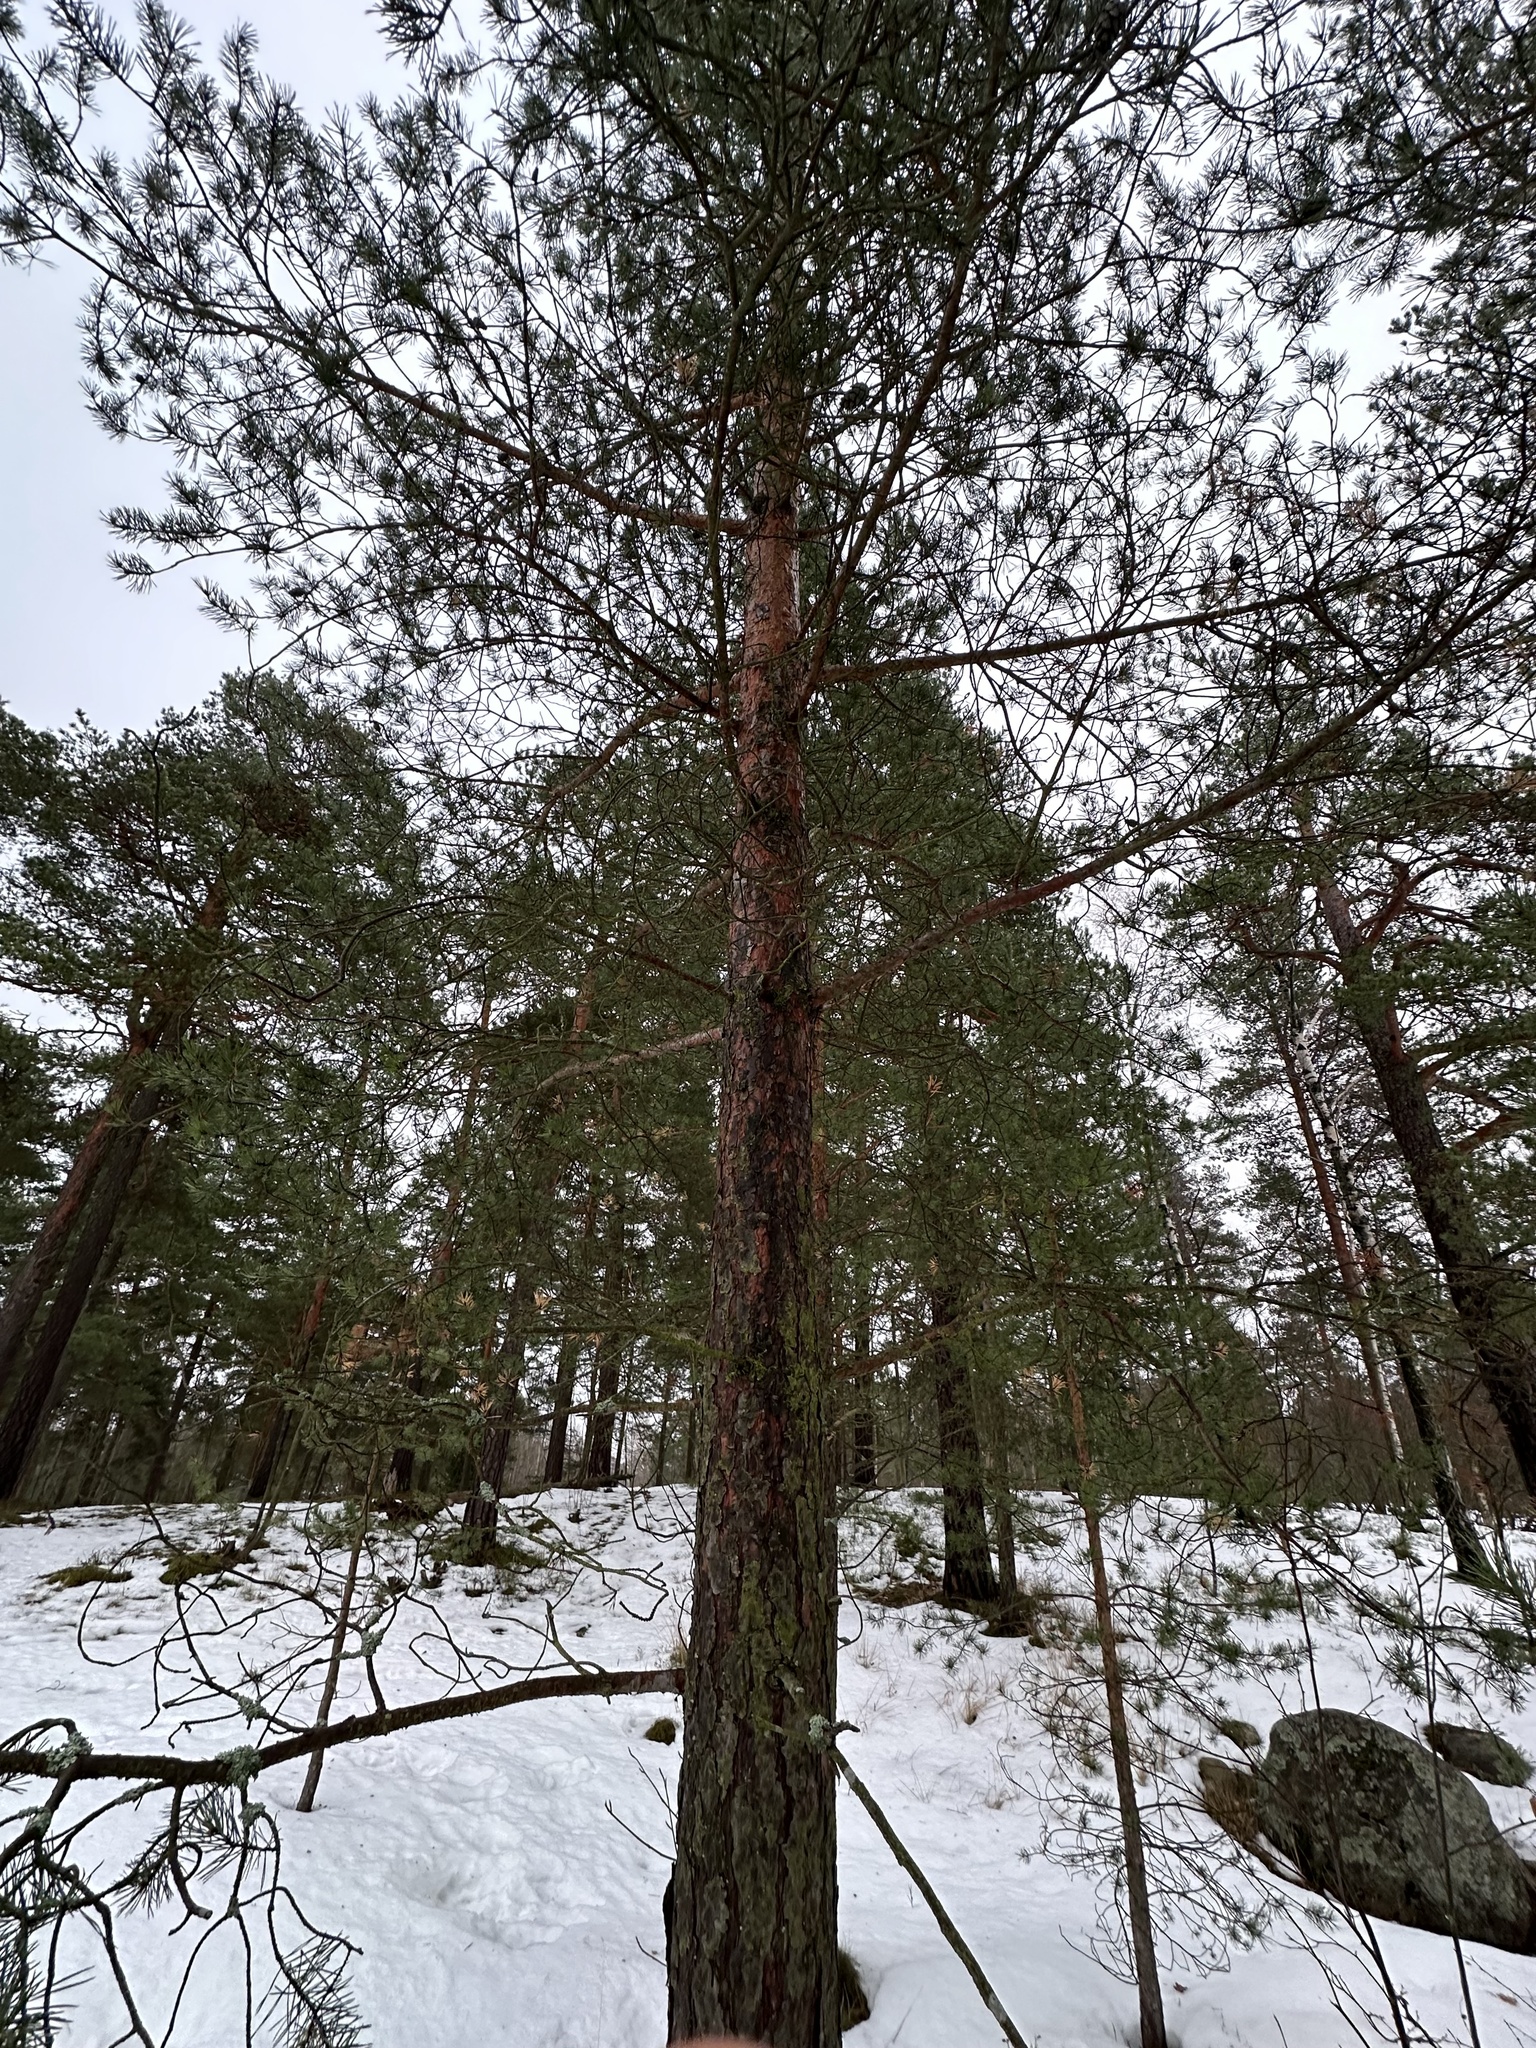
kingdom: Plantae
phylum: Tracheophyta
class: Pinopsida
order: Pinales
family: Pinaceae
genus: Pinus
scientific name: Pinus sylvestris
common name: Scots pine
